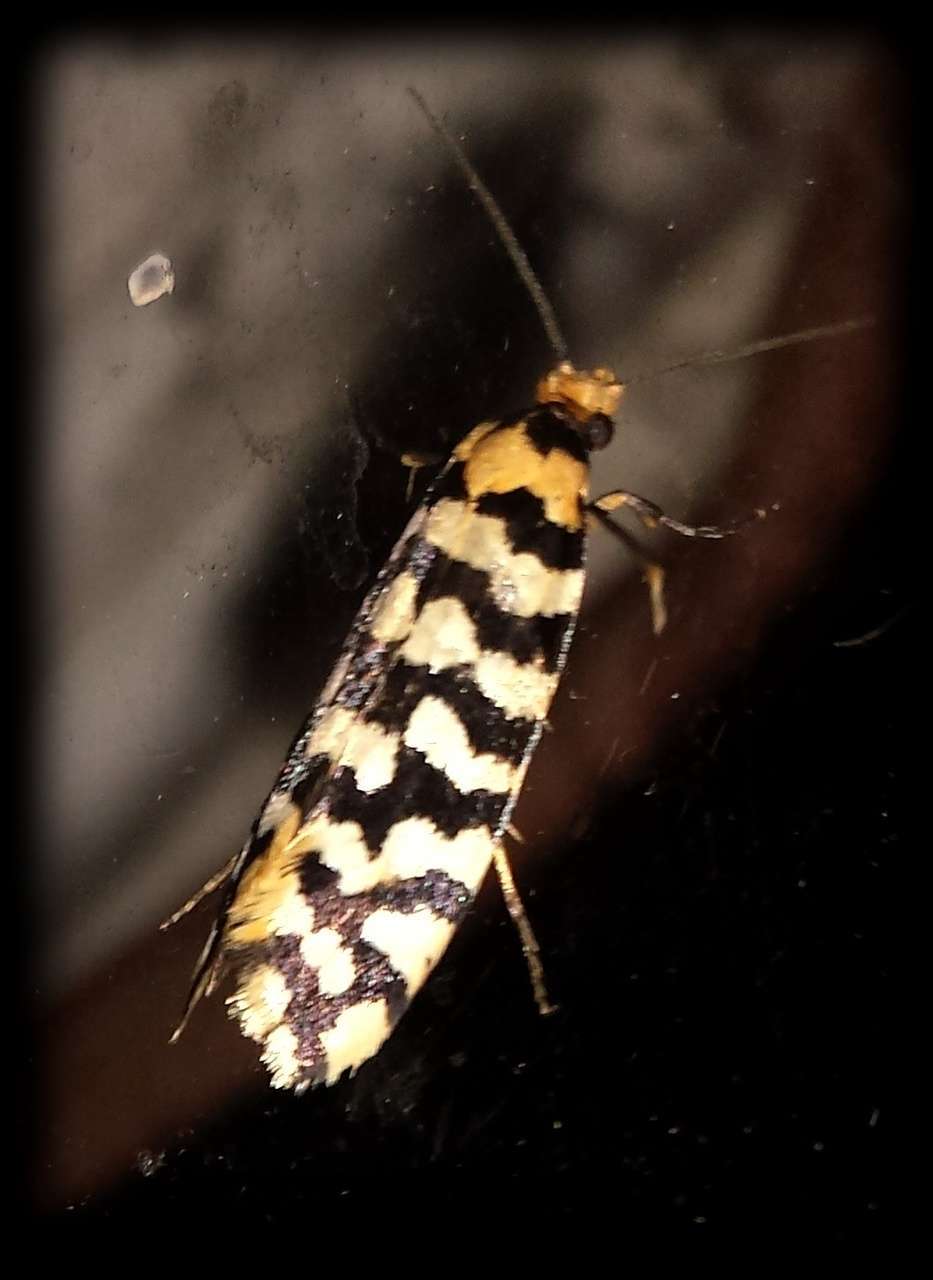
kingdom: Animalia
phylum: Arthropoda
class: Insecta
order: Lepidoptera
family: Tineidae
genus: Moerarchis
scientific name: Moerarchis australasiella
